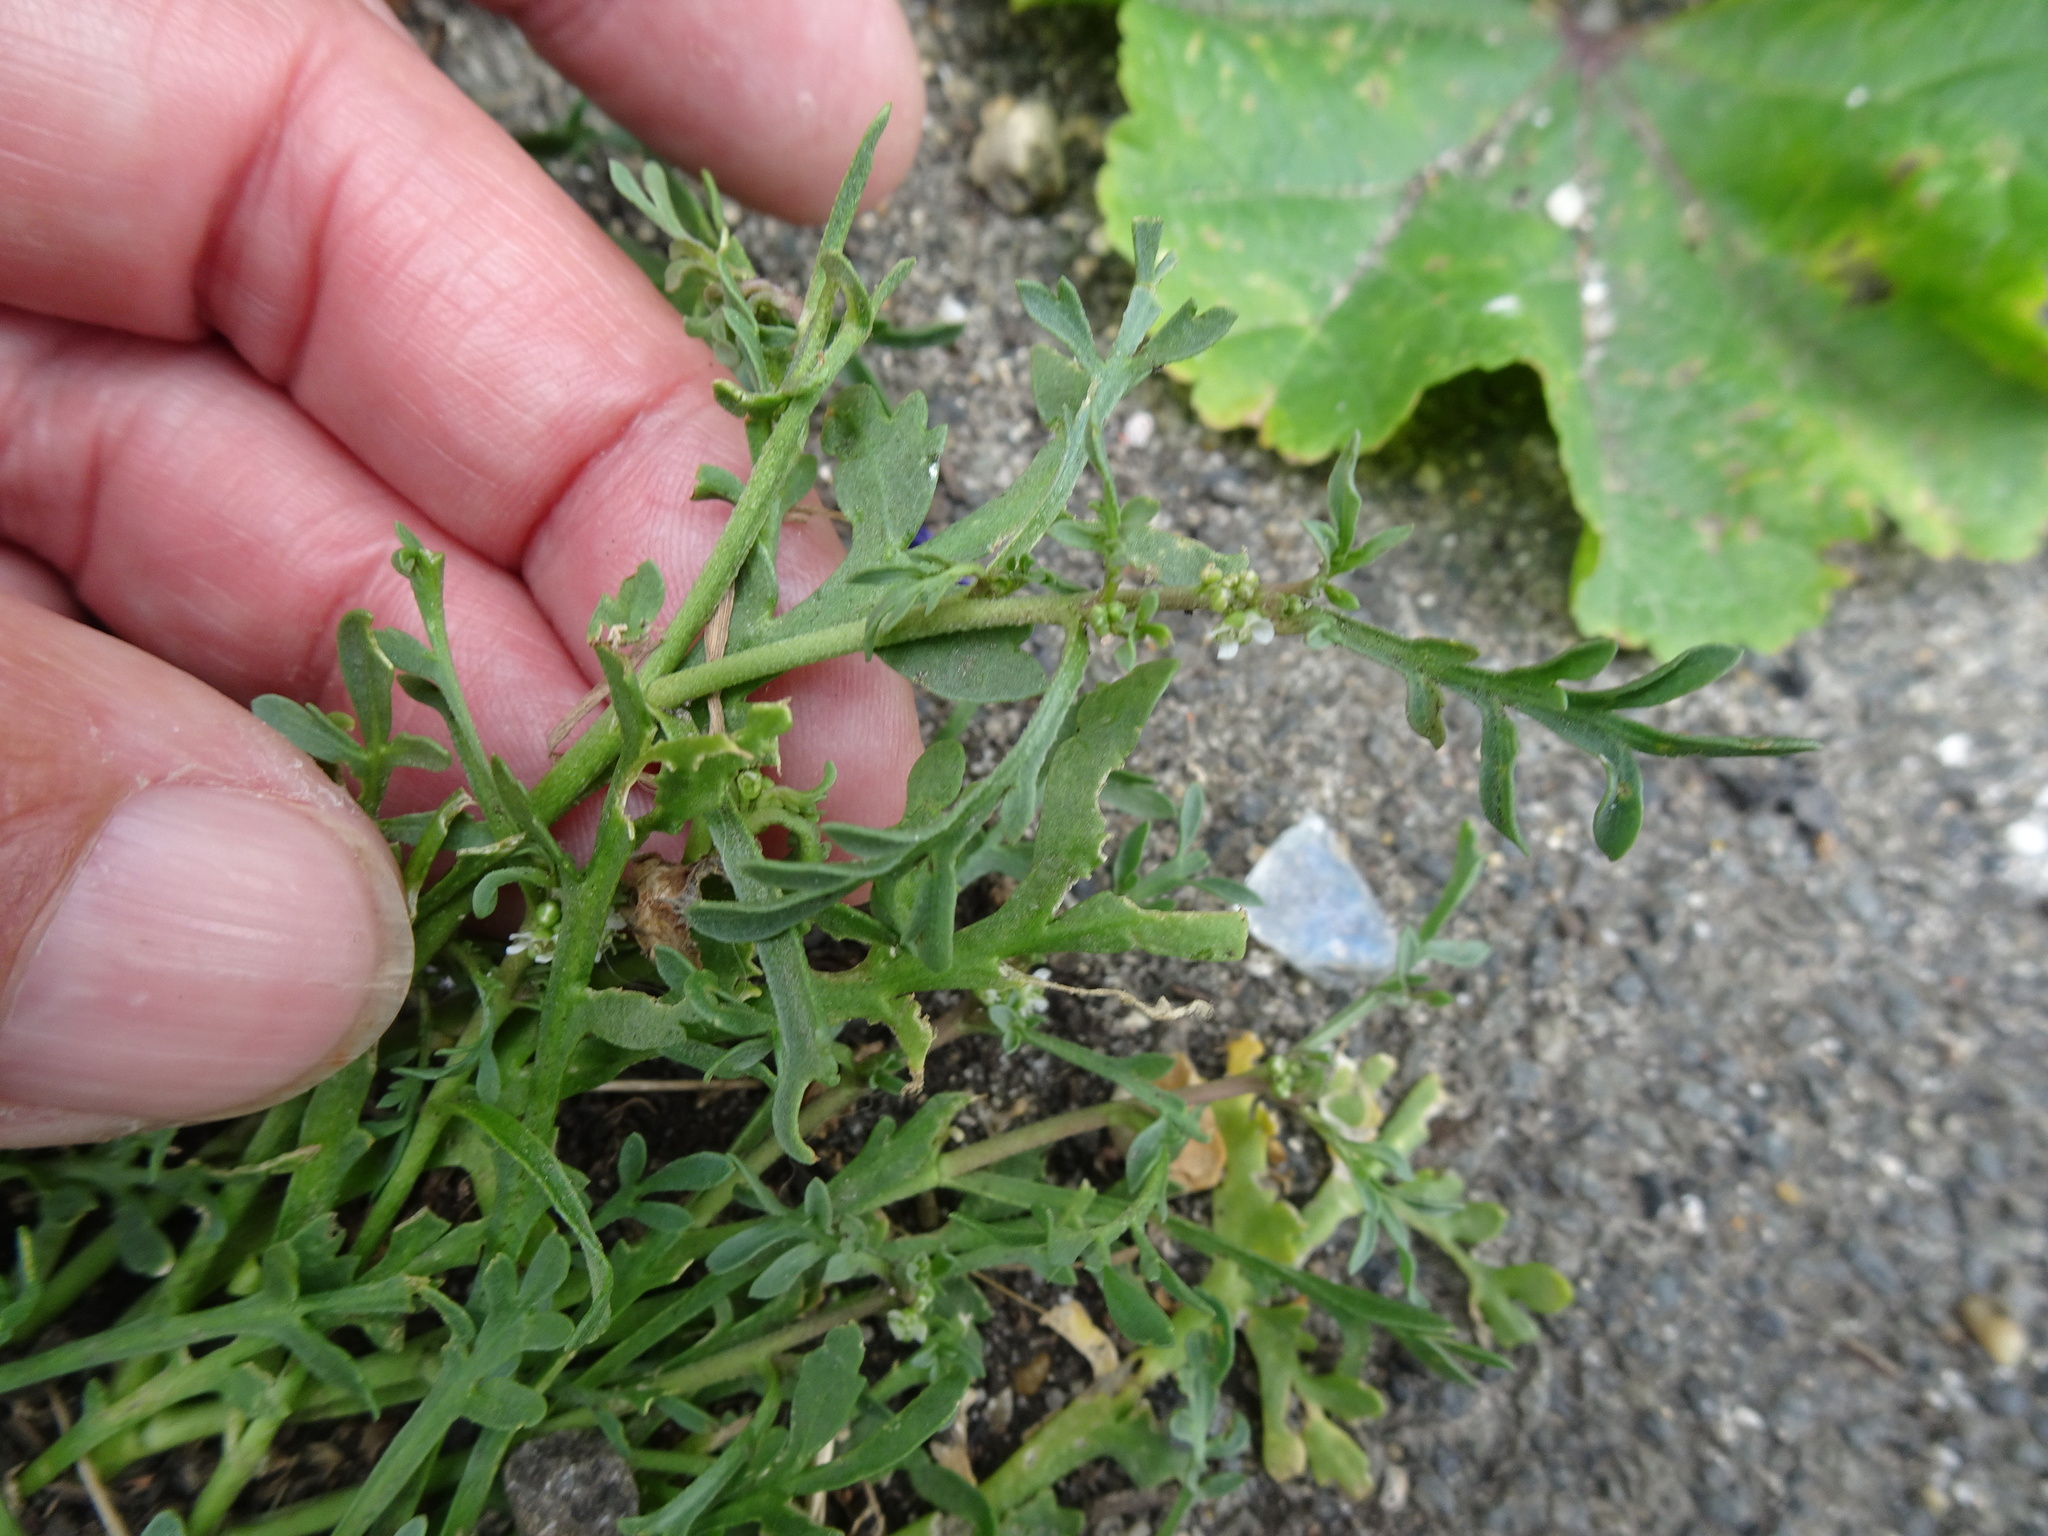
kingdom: Plantae
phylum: Tracheophyta
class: Magnoliopsida
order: Brassicales
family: Brassicaceae
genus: Lepidium
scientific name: Lepidium coronopus
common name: Greater swinecress
